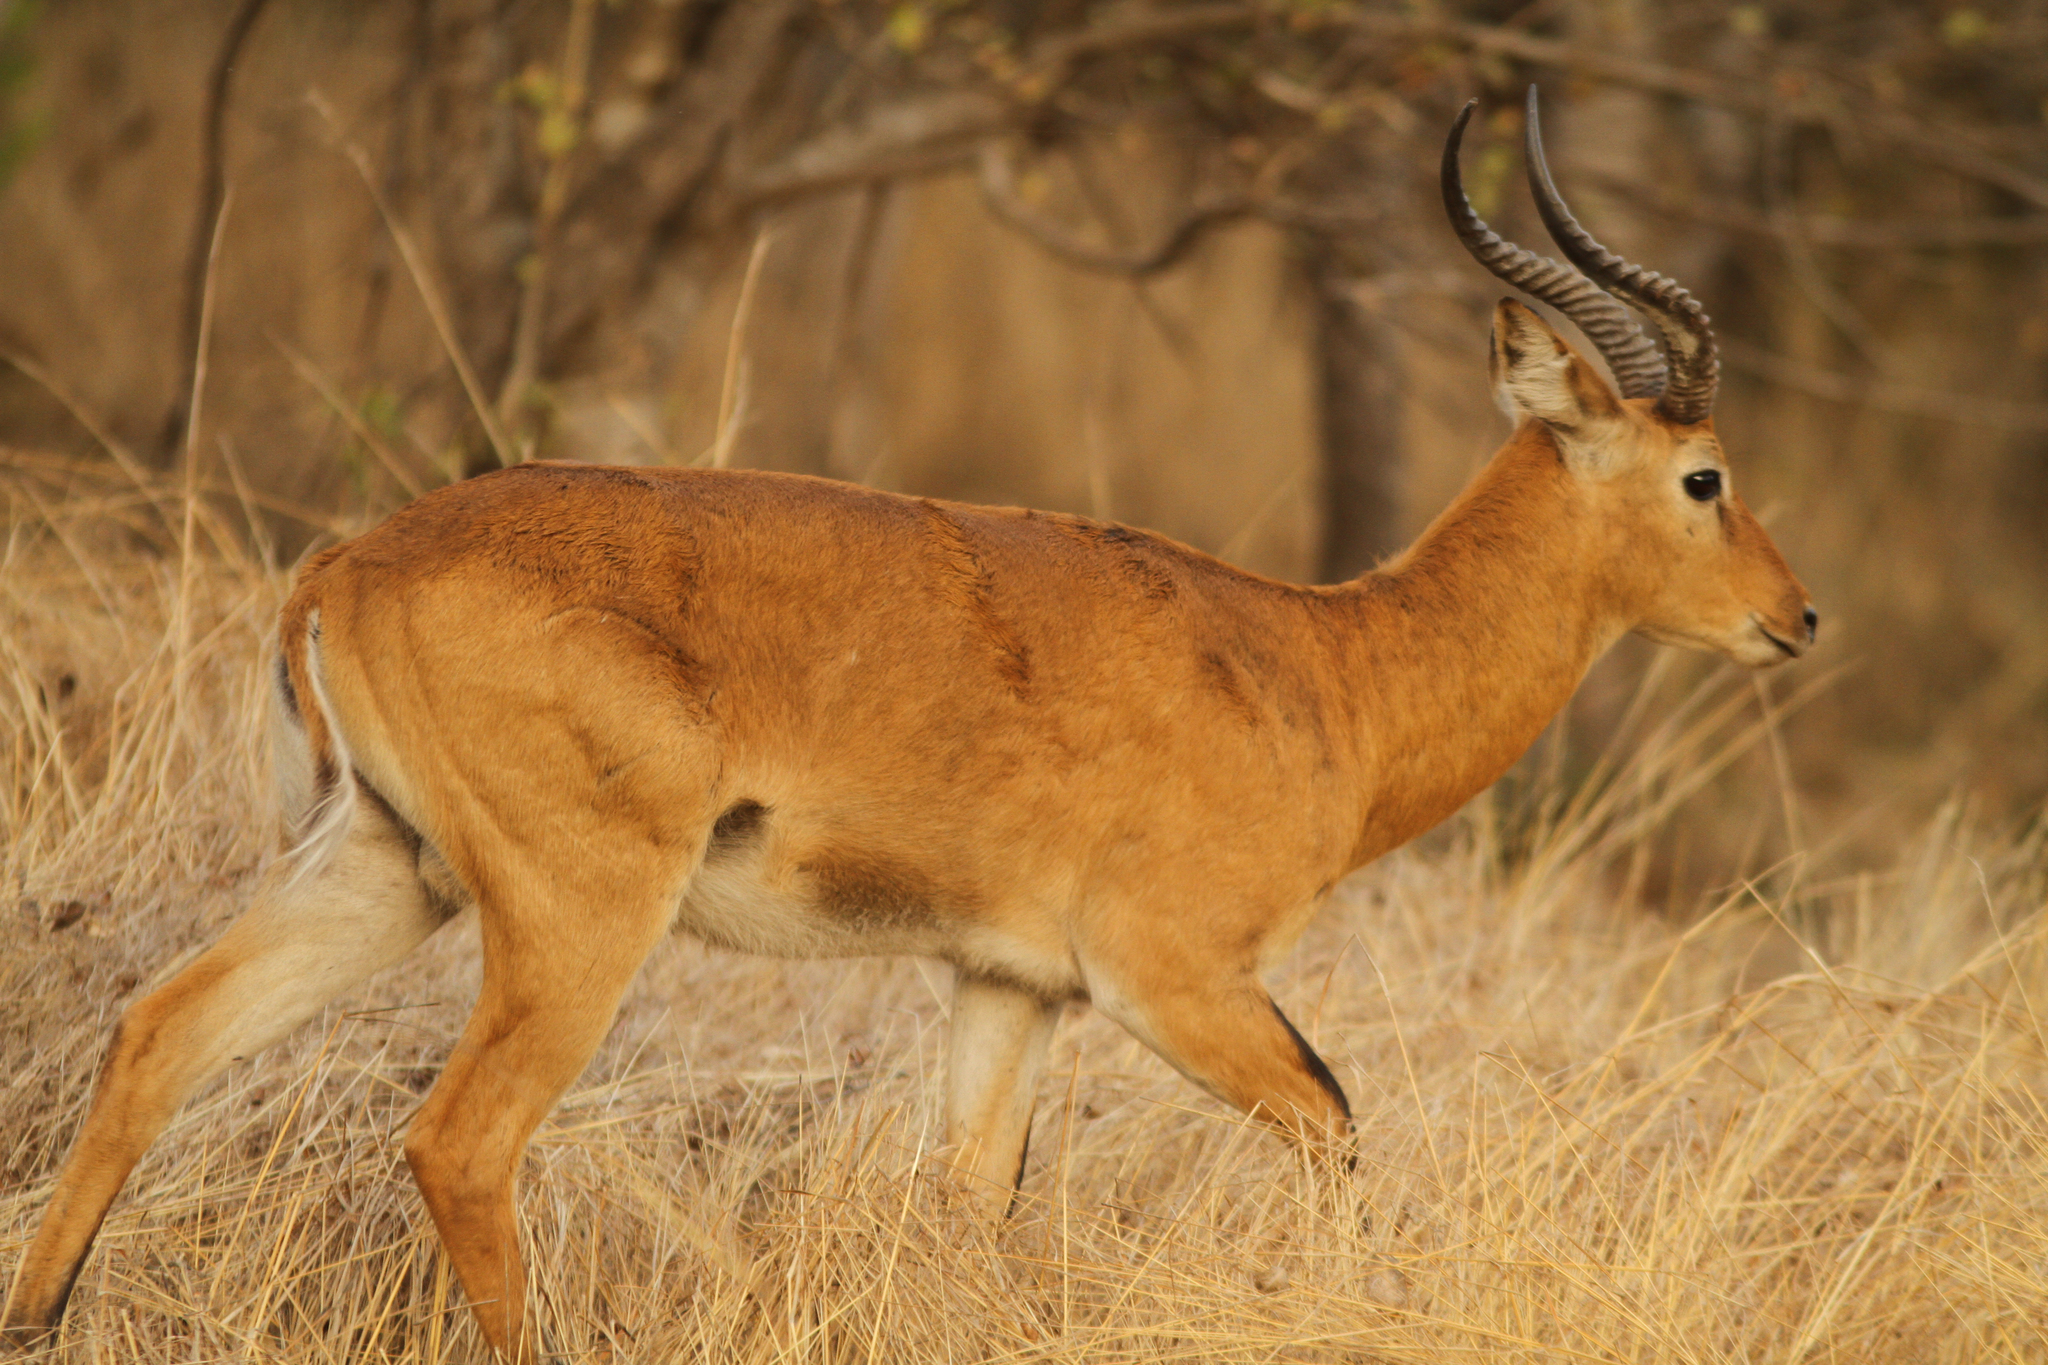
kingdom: Animalia
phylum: Chordata
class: Mammalia
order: Artiodactyla
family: Bovidae
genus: Kobus
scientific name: Kobus kob
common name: Kob
